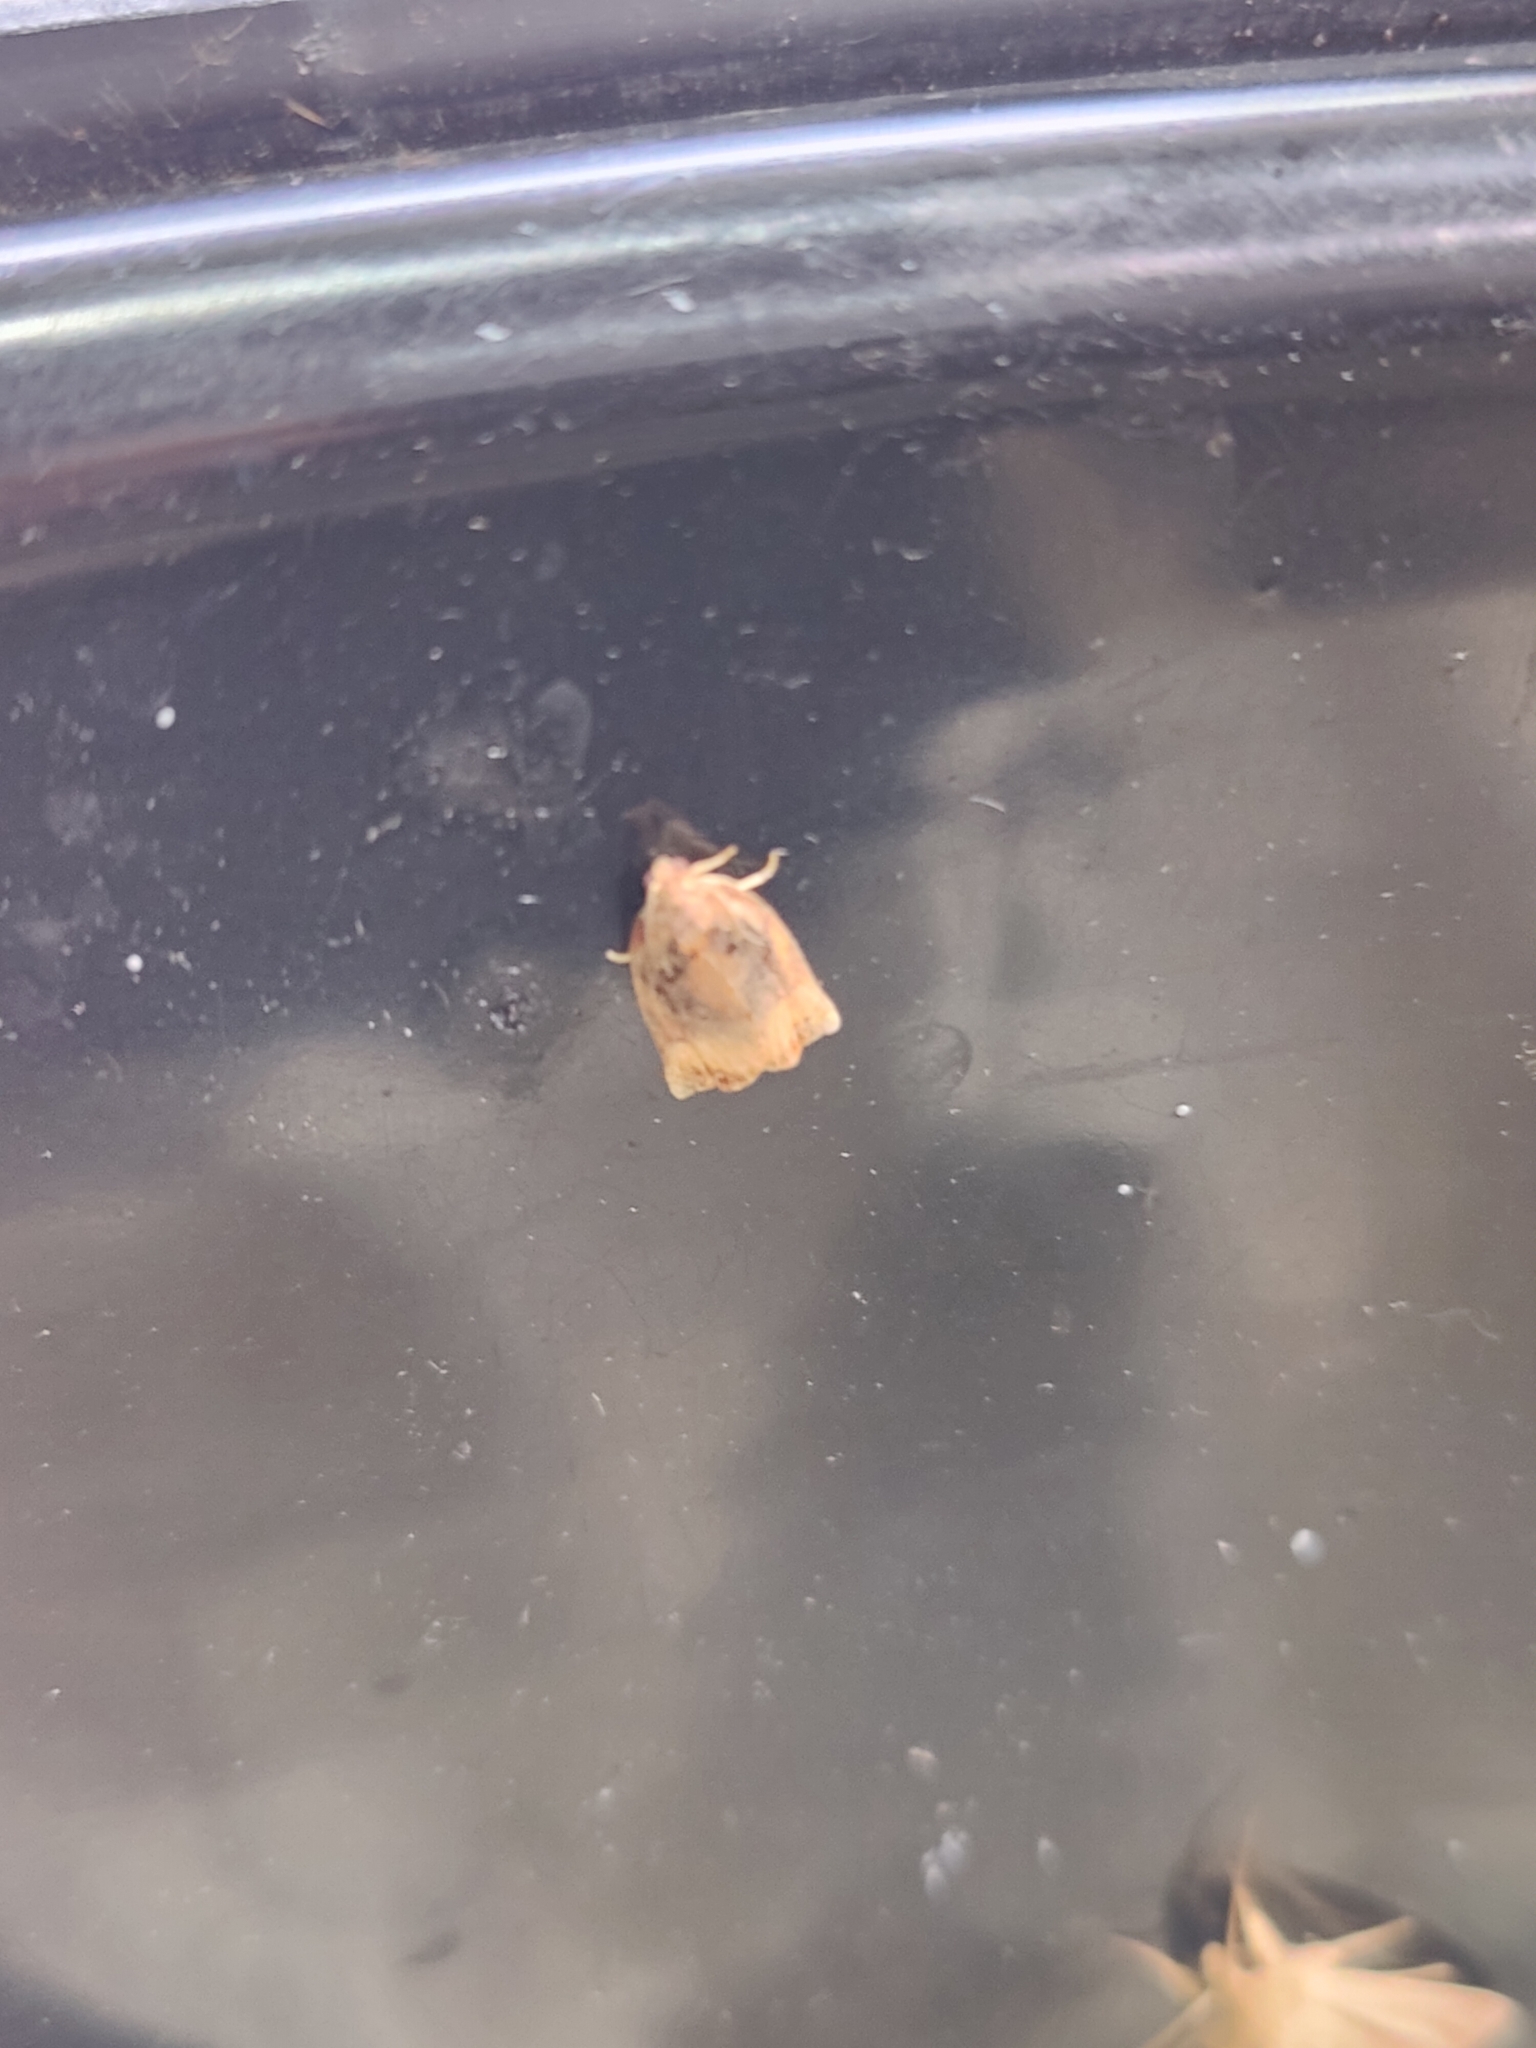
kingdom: Animalia
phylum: Arthropoda
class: Insecta
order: Lepidoptera
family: Tortricidae
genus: Archips
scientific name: Archips podana
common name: Large fruit-tree tortrix
